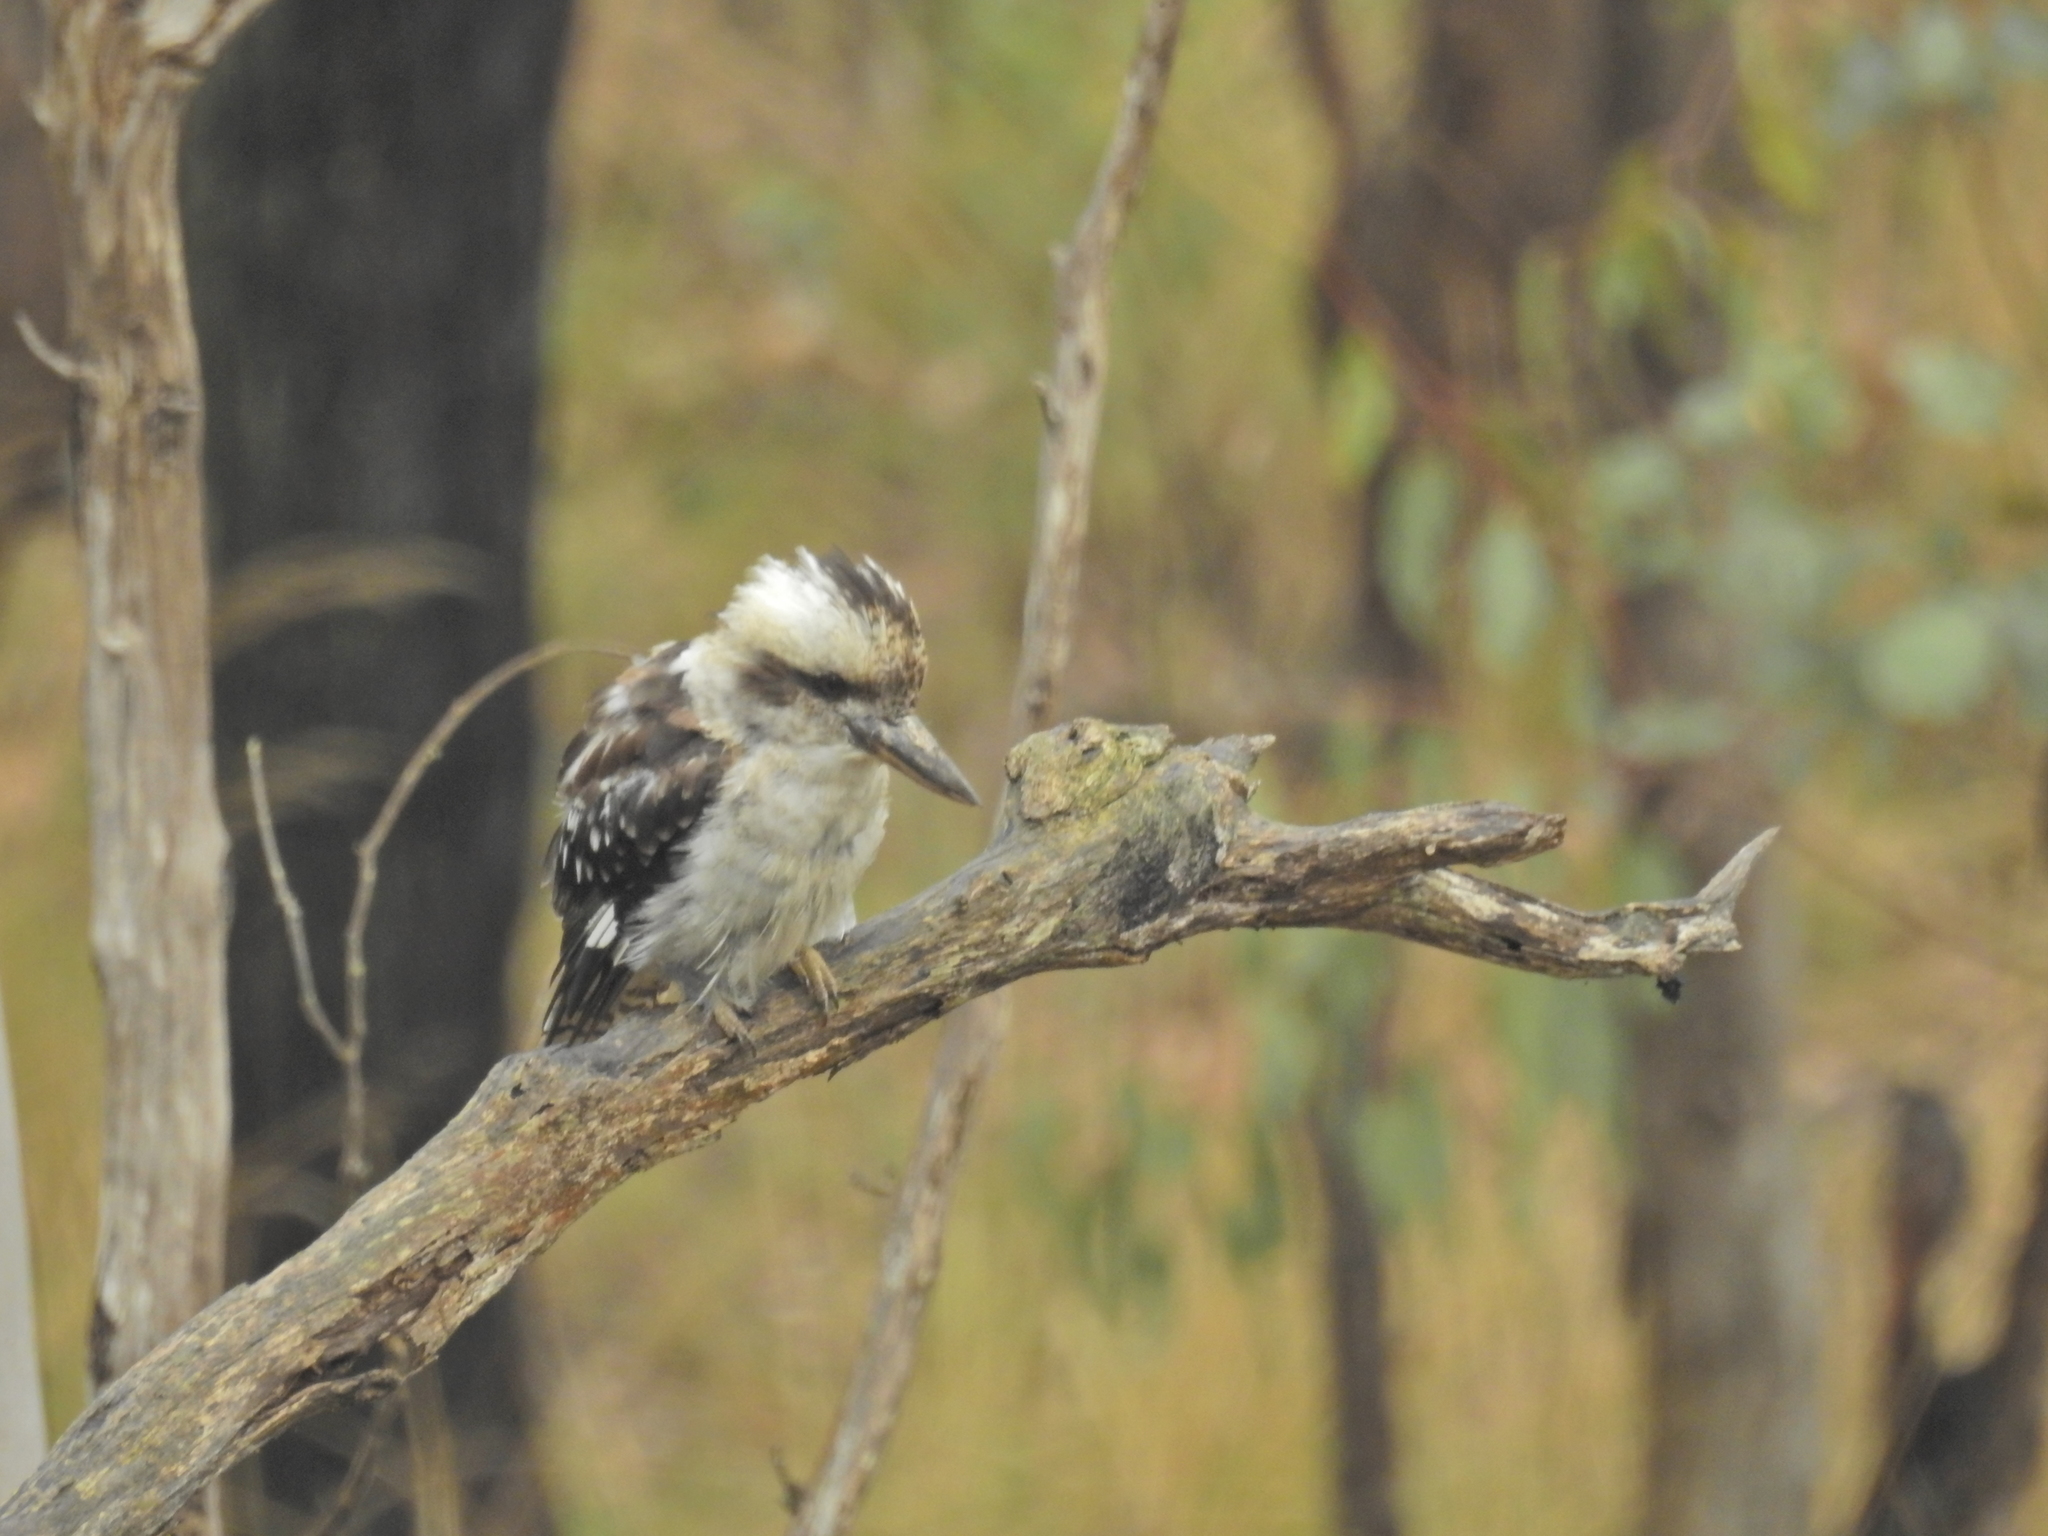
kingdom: Animalia
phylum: Chordata
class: Aves
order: Coraciiformes
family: Alcedinidae
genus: Dacelo
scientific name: Dacelo novaeguineae
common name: Laughing kookaburra
